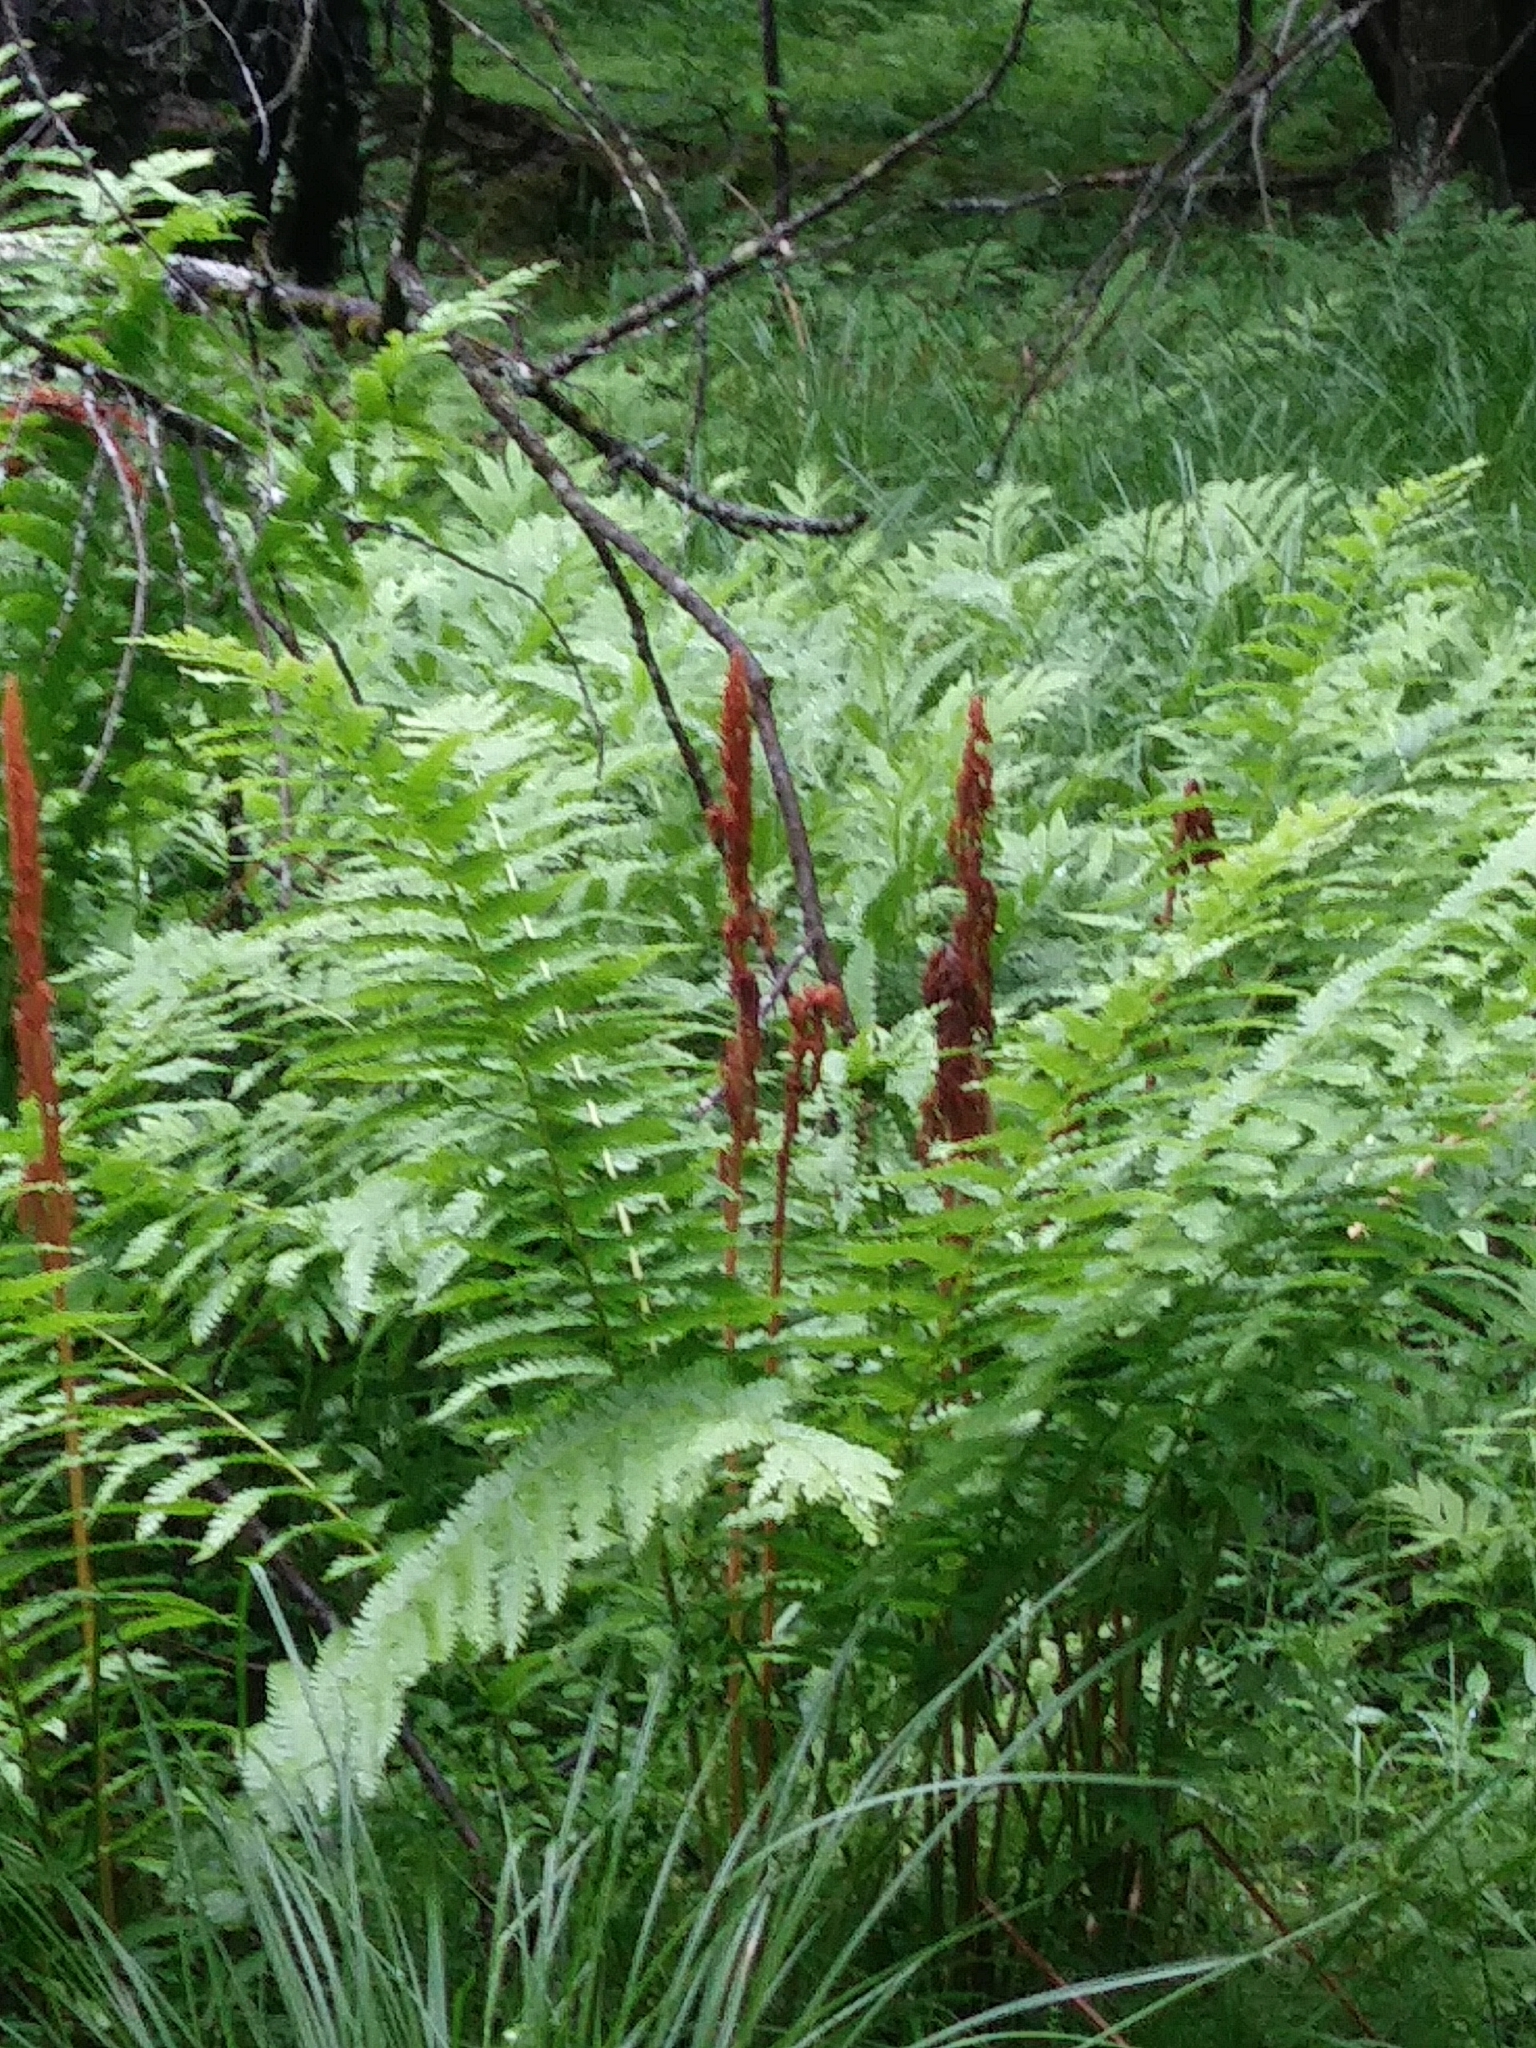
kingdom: Plantae
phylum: Tracheophyta
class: Polypodiopsida
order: Osmundales
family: Osmundaceae
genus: Osmundastrum
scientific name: Osmundastrum cinnamomeum
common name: Cinnamon fern
